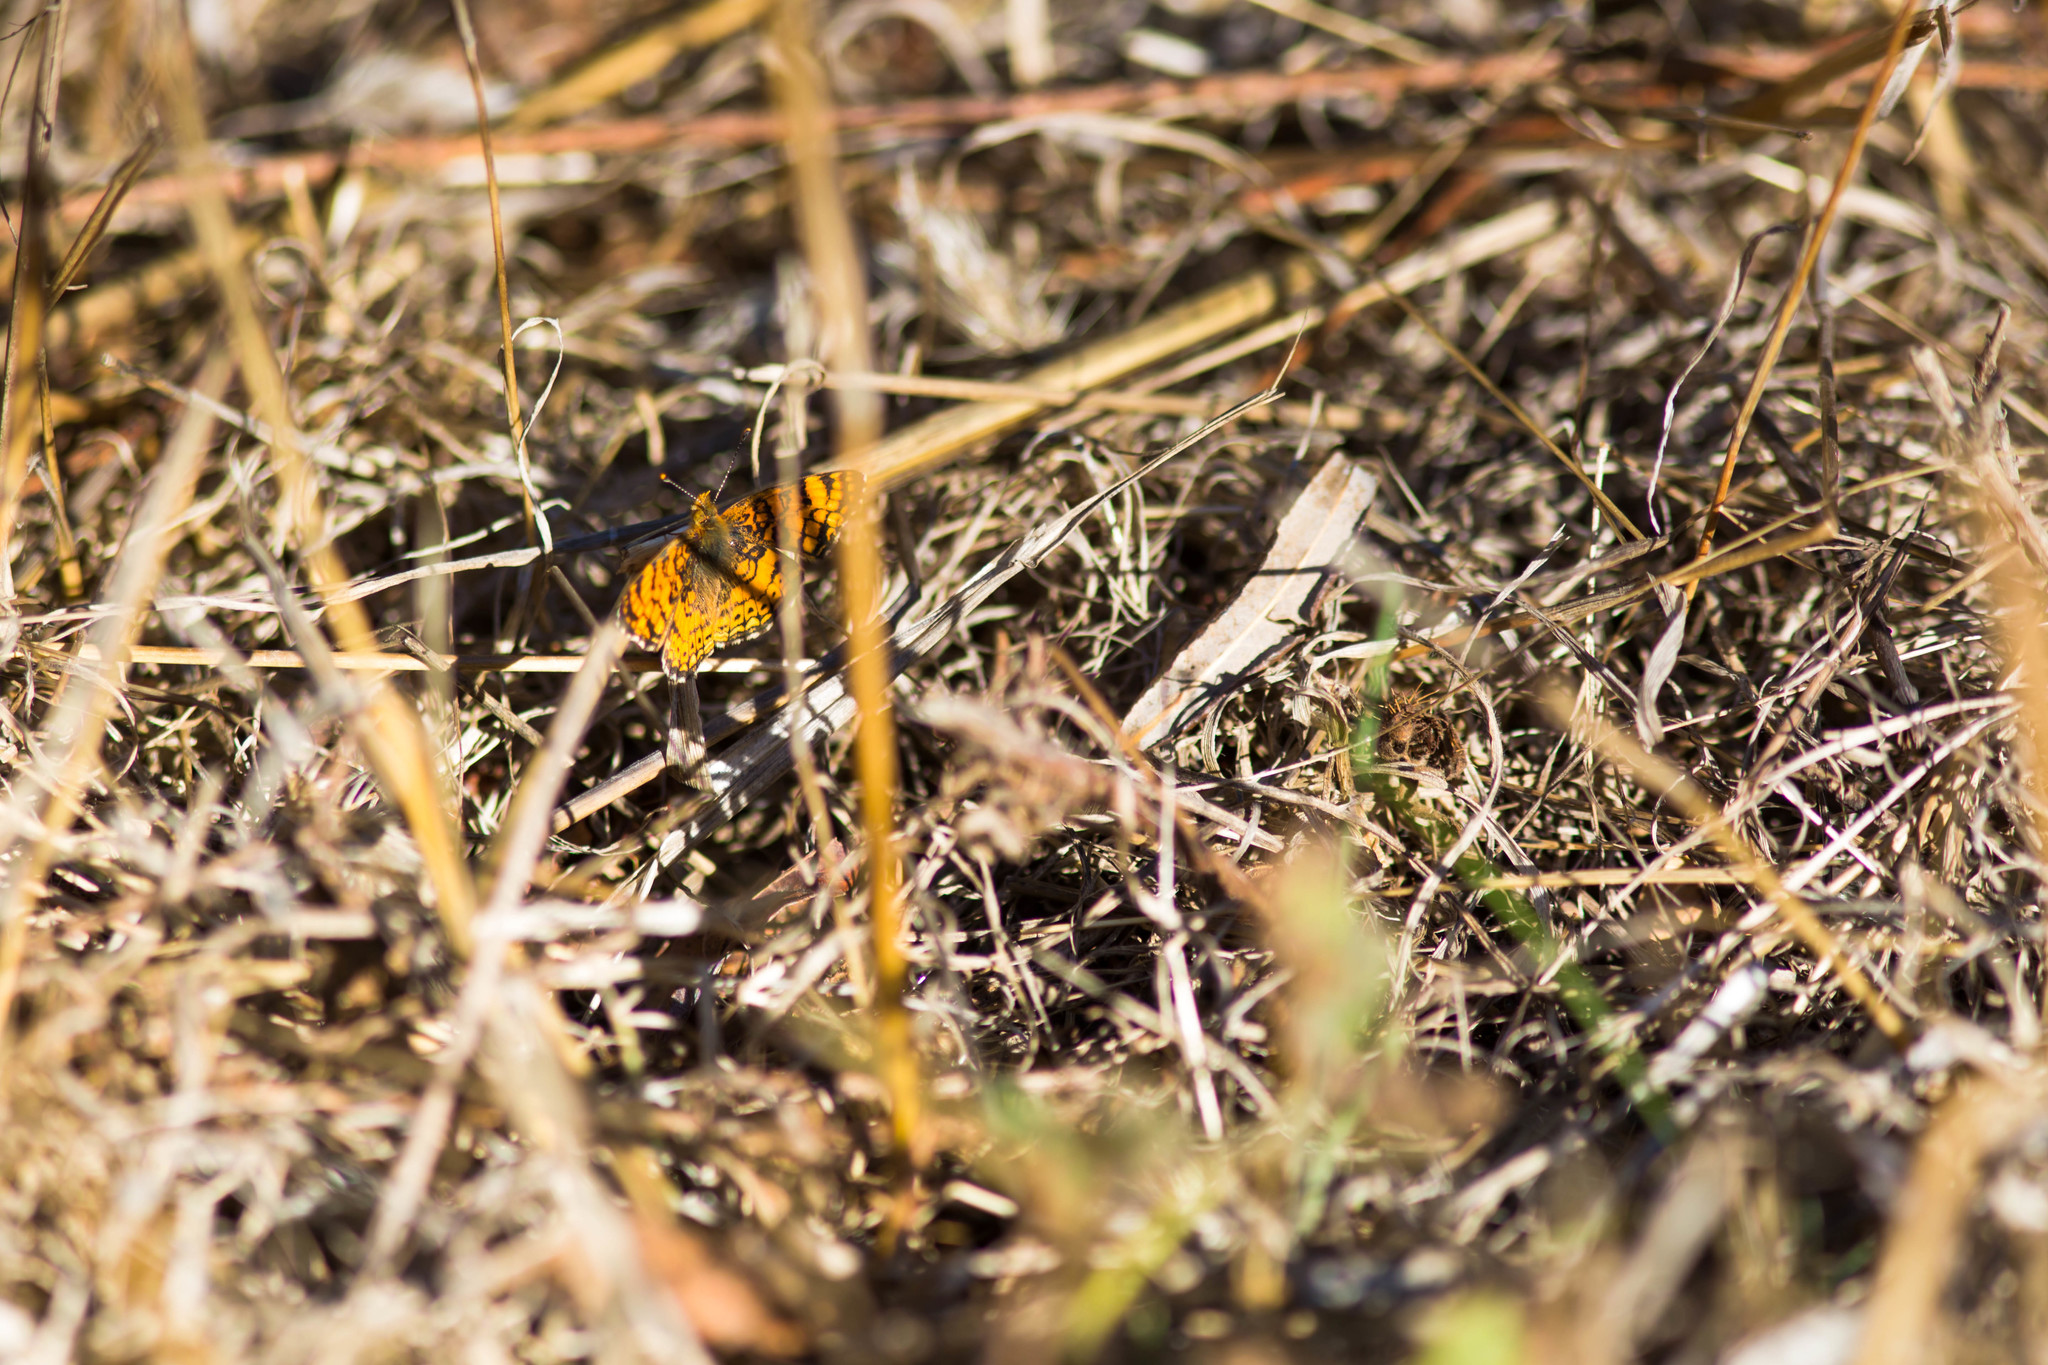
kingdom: Animalia
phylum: Arthropoda
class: Insecta
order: Lepidoptera
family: Nymphalidae
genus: Eresia
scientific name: Eresia aveyrona
